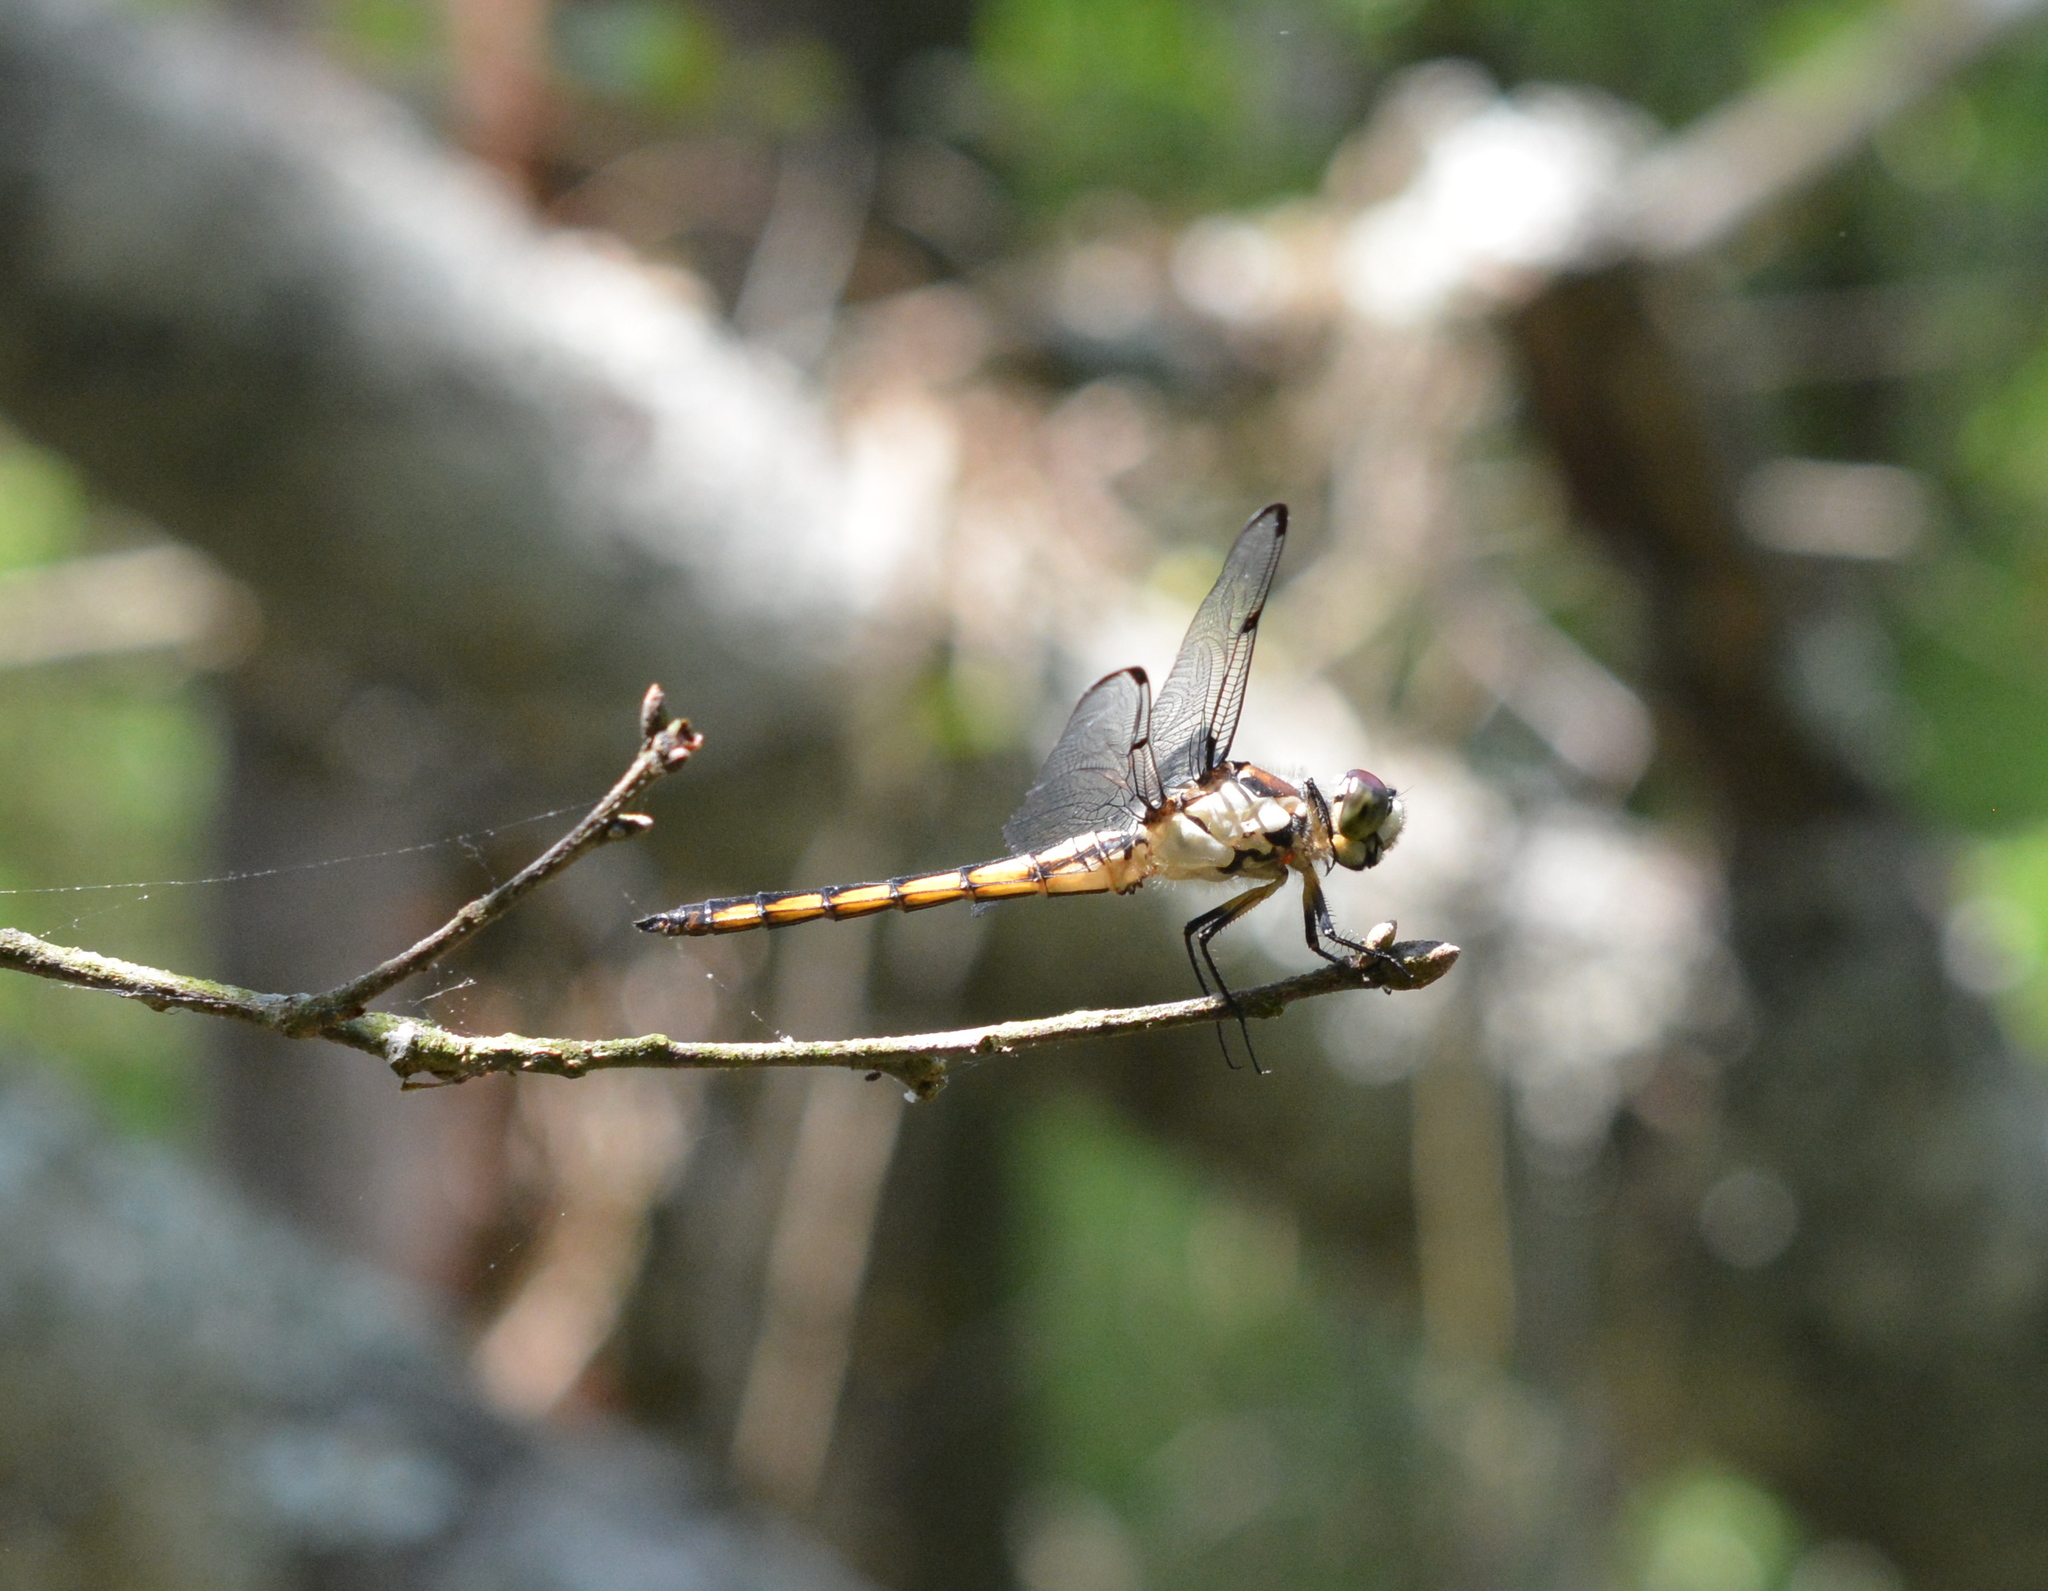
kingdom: Animalia
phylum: Arthropoda
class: Insecta
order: Odonata
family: Libellulidae
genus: Libellula
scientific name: Libellula vibrans
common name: Great blue skimmer
